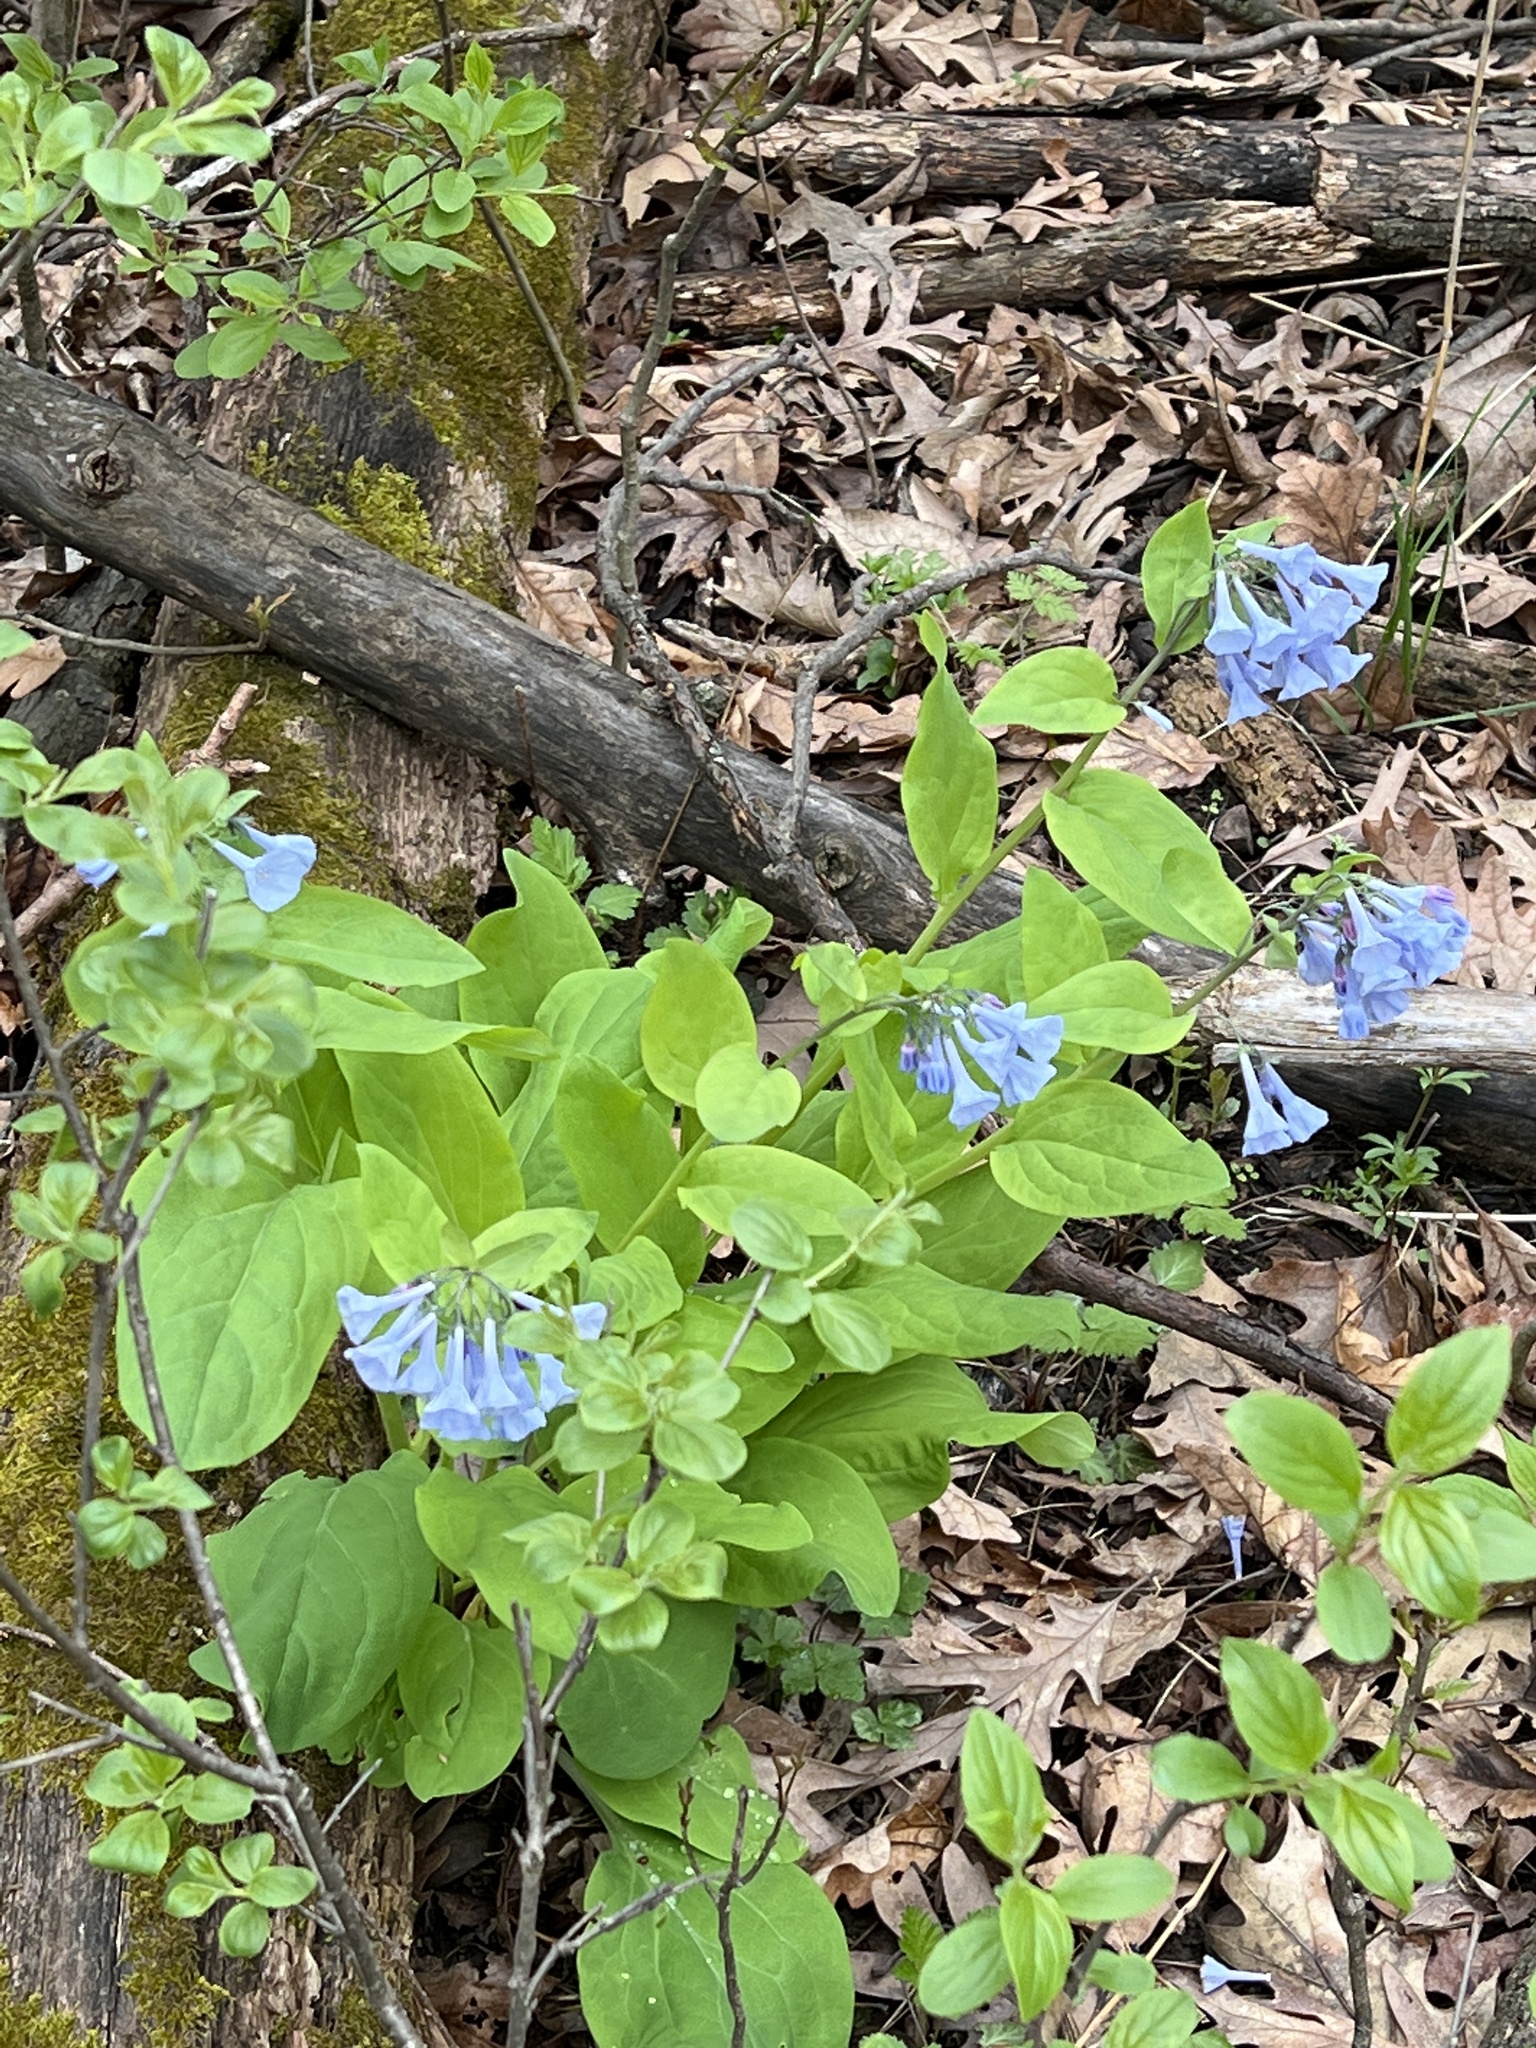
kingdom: Plantae
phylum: Tracheophyta
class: Magnoliopsida
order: Boraginales
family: Boraginaceae
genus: Mertensia
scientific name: Mertensia virginica
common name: Virginia bluebells
